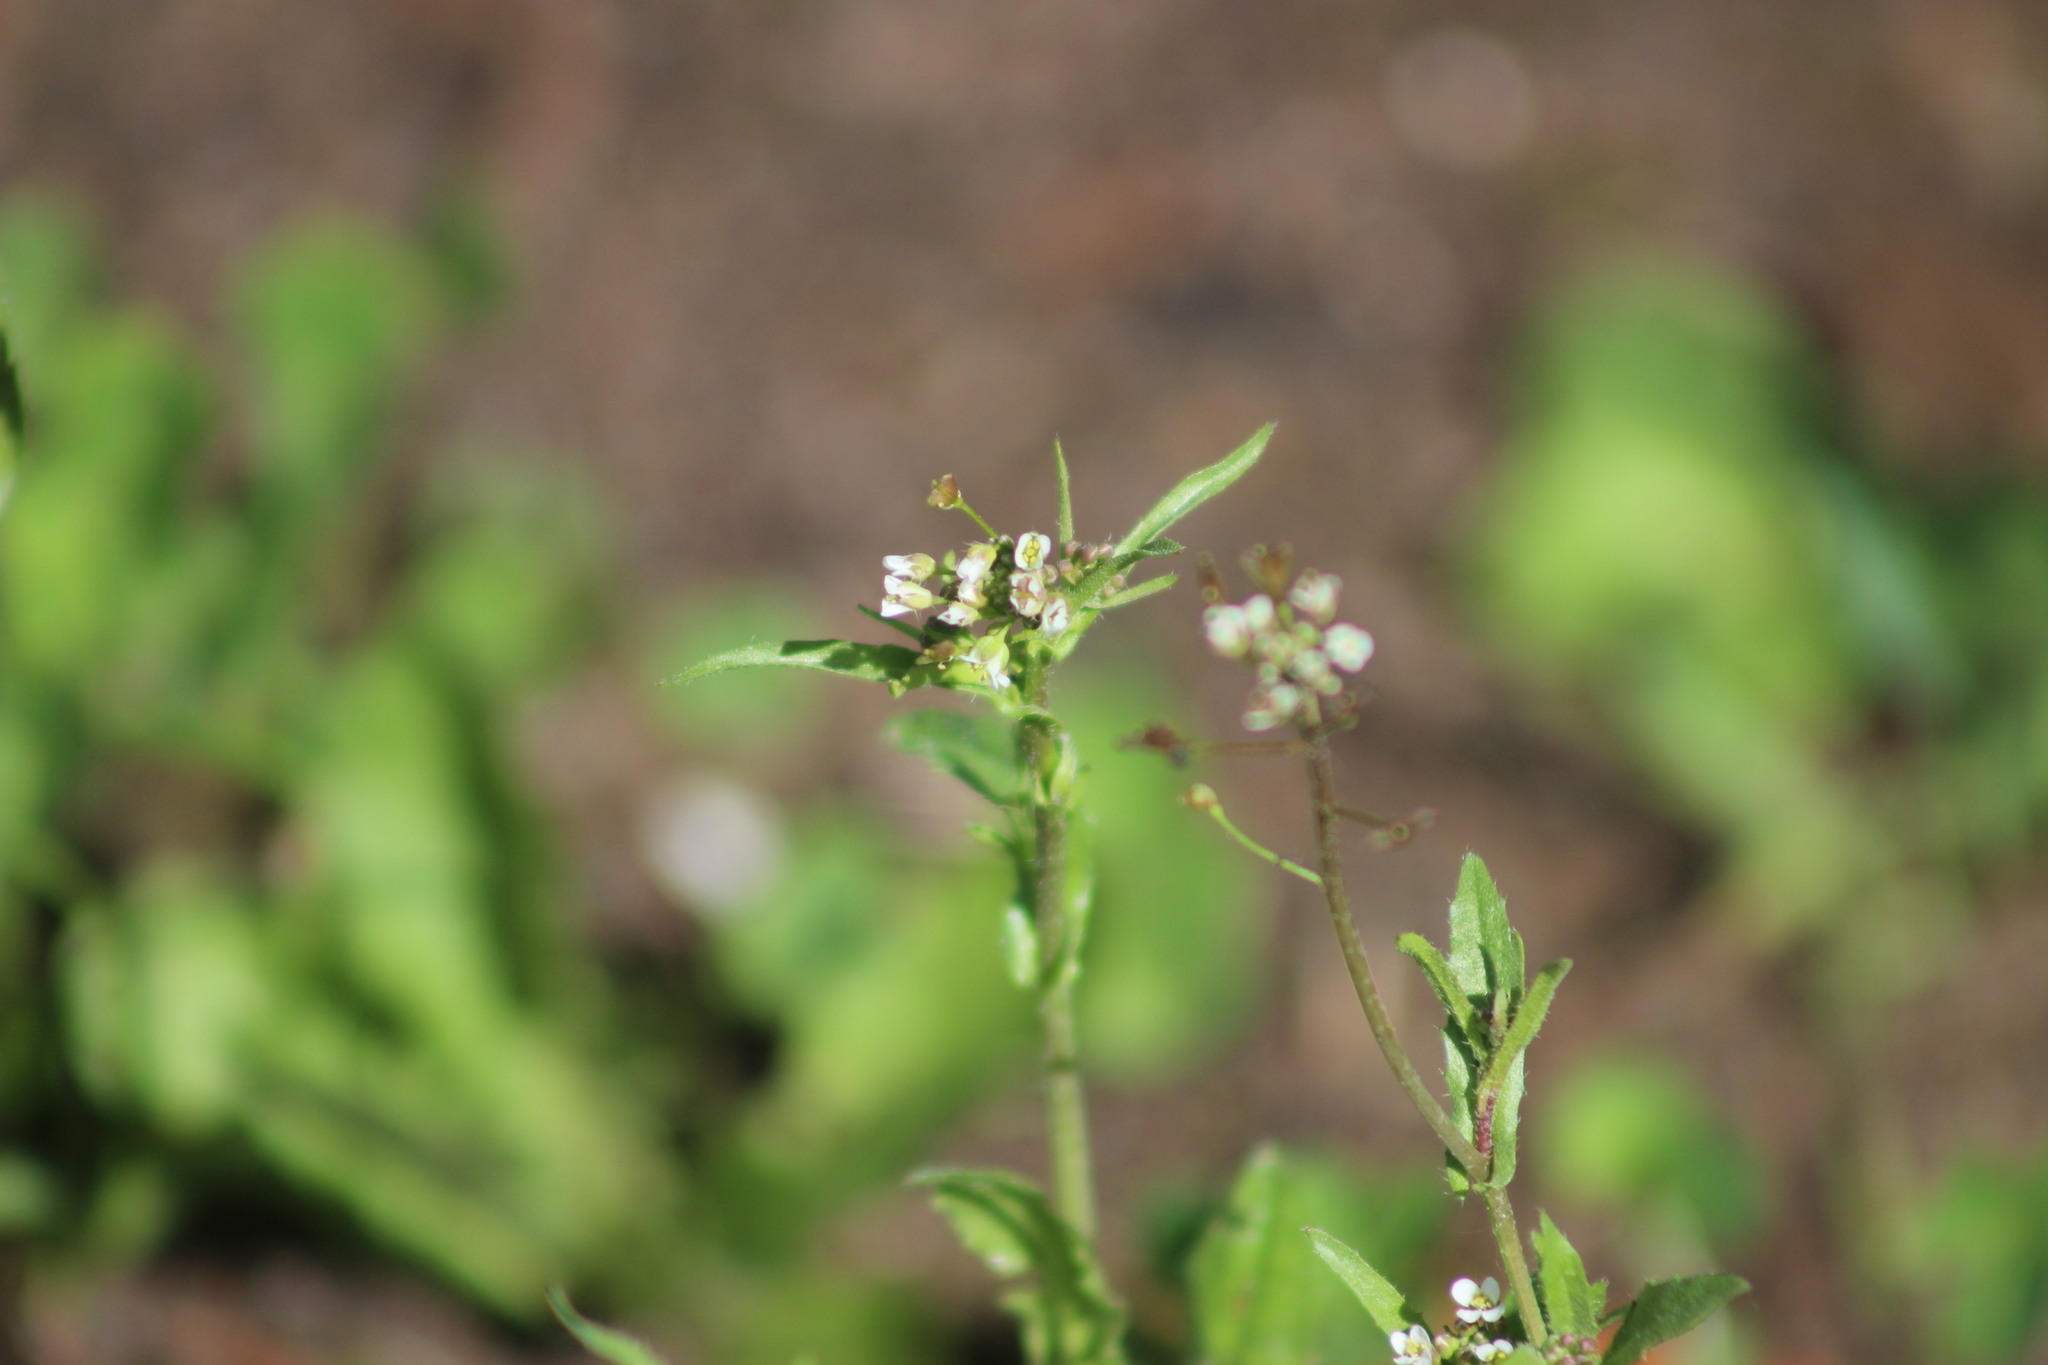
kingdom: Plantae
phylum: Tracheophyta
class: Magnoliopsida
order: Brassicales
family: Brassicaceae
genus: Capsella
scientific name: Capsella bursa-pastoris
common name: Shepherd's purse
